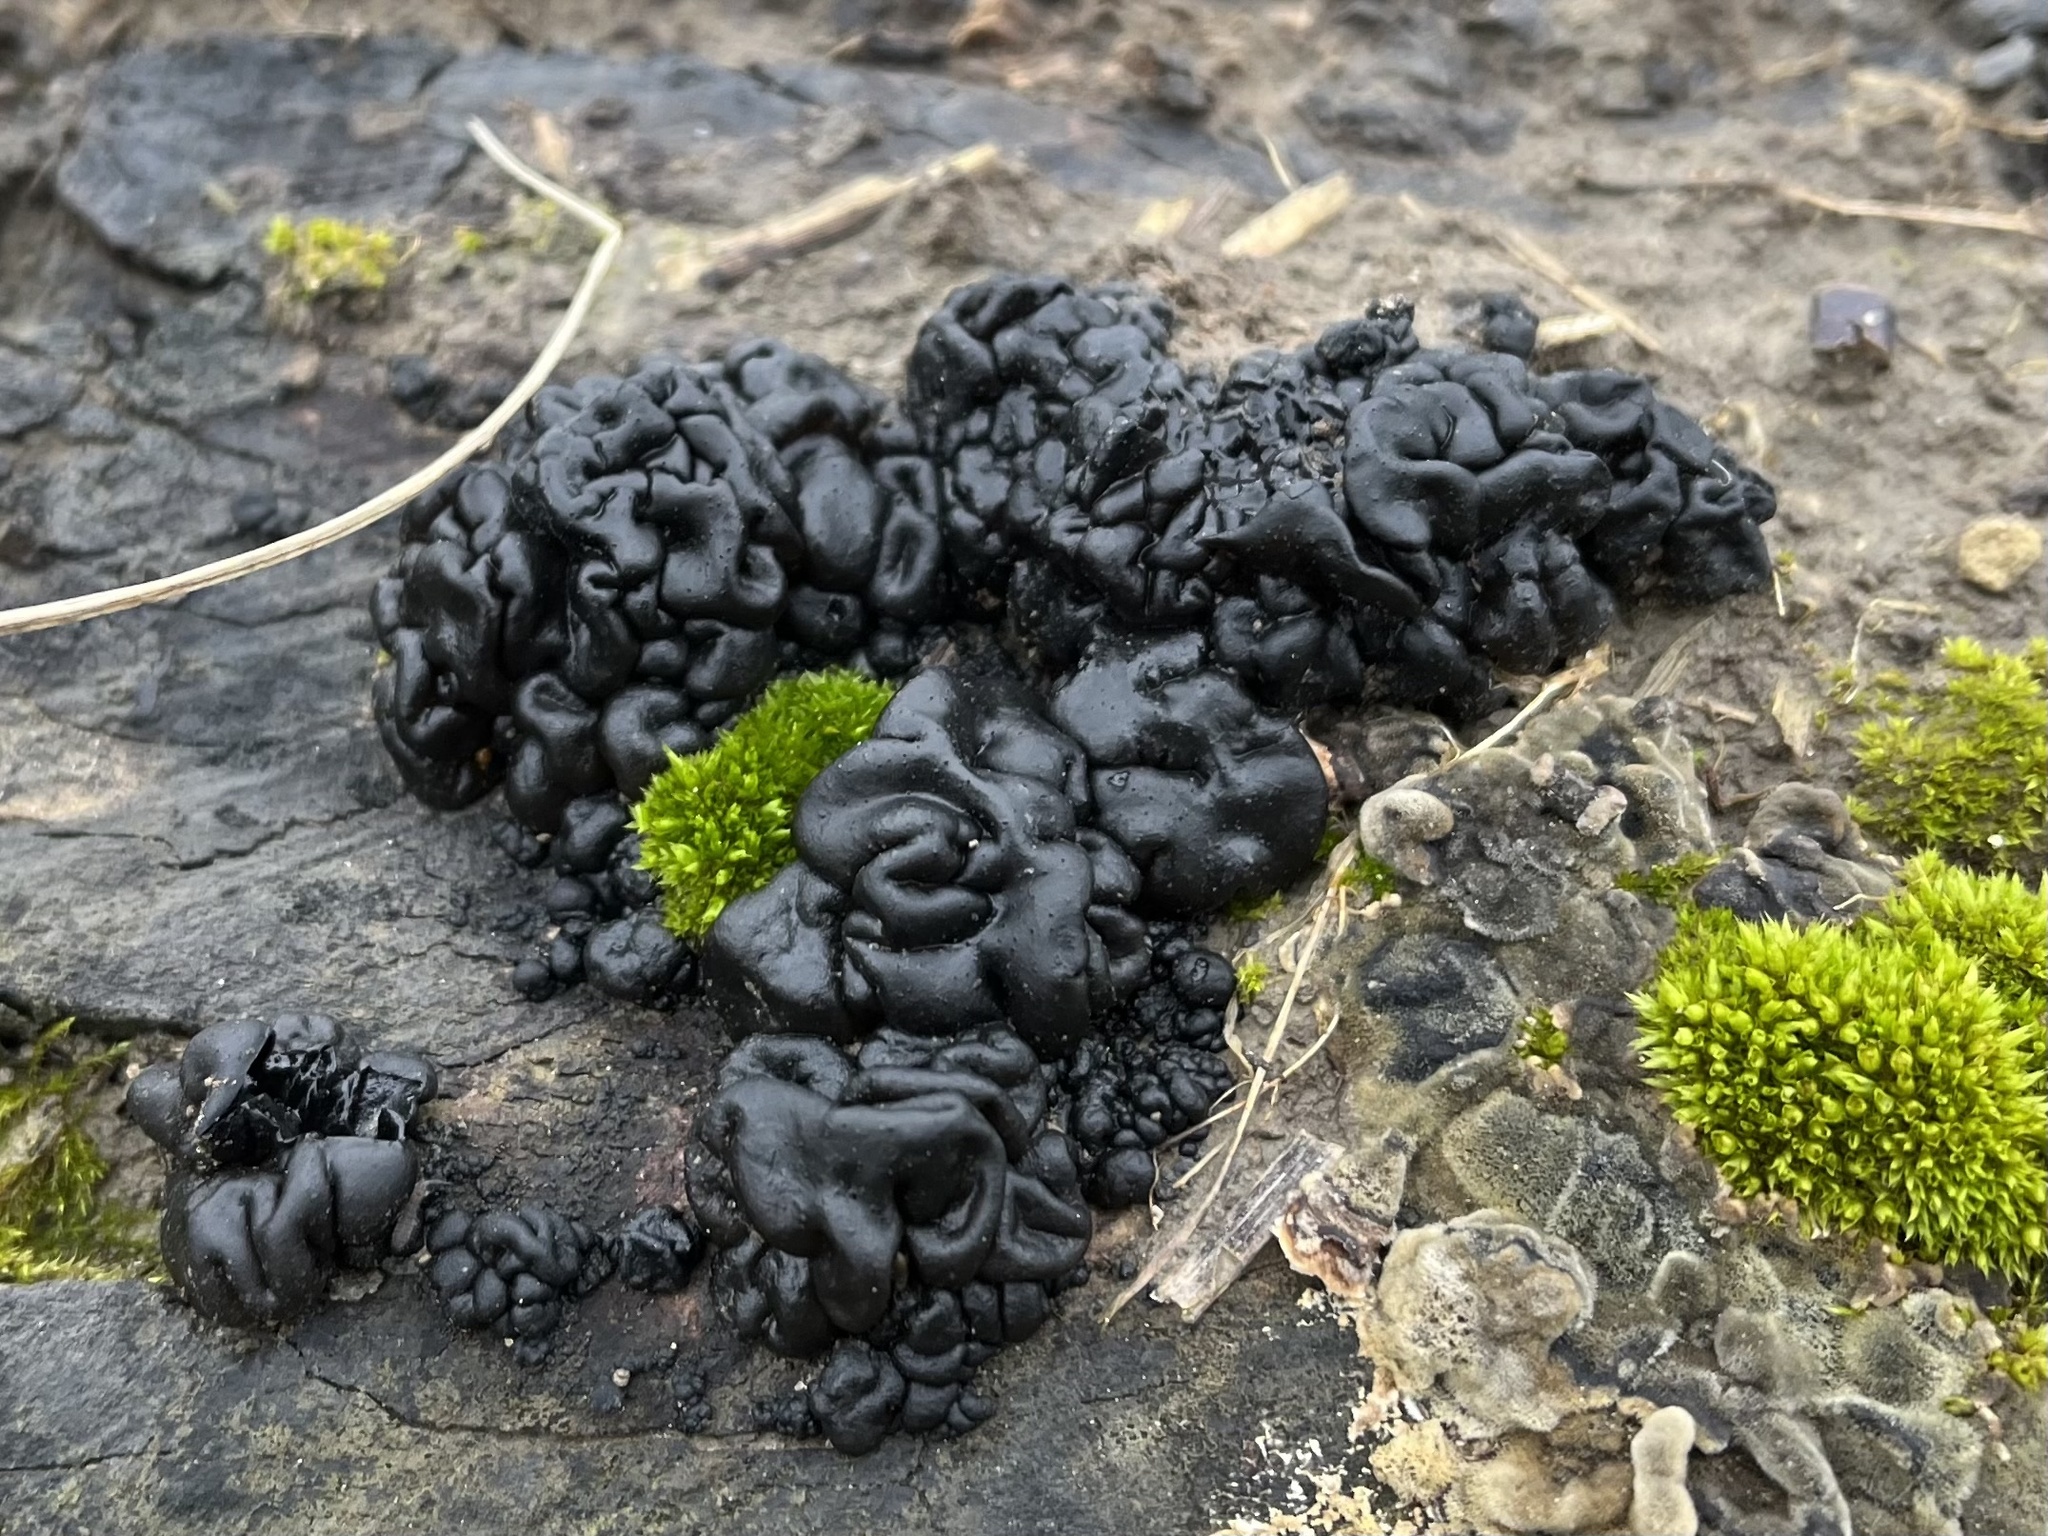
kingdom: Fungi
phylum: Basidiomycota
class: Agaricomycetes
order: Auriculariales
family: Auriculariaceae
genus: Exidia
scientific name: Exidia nigricans
